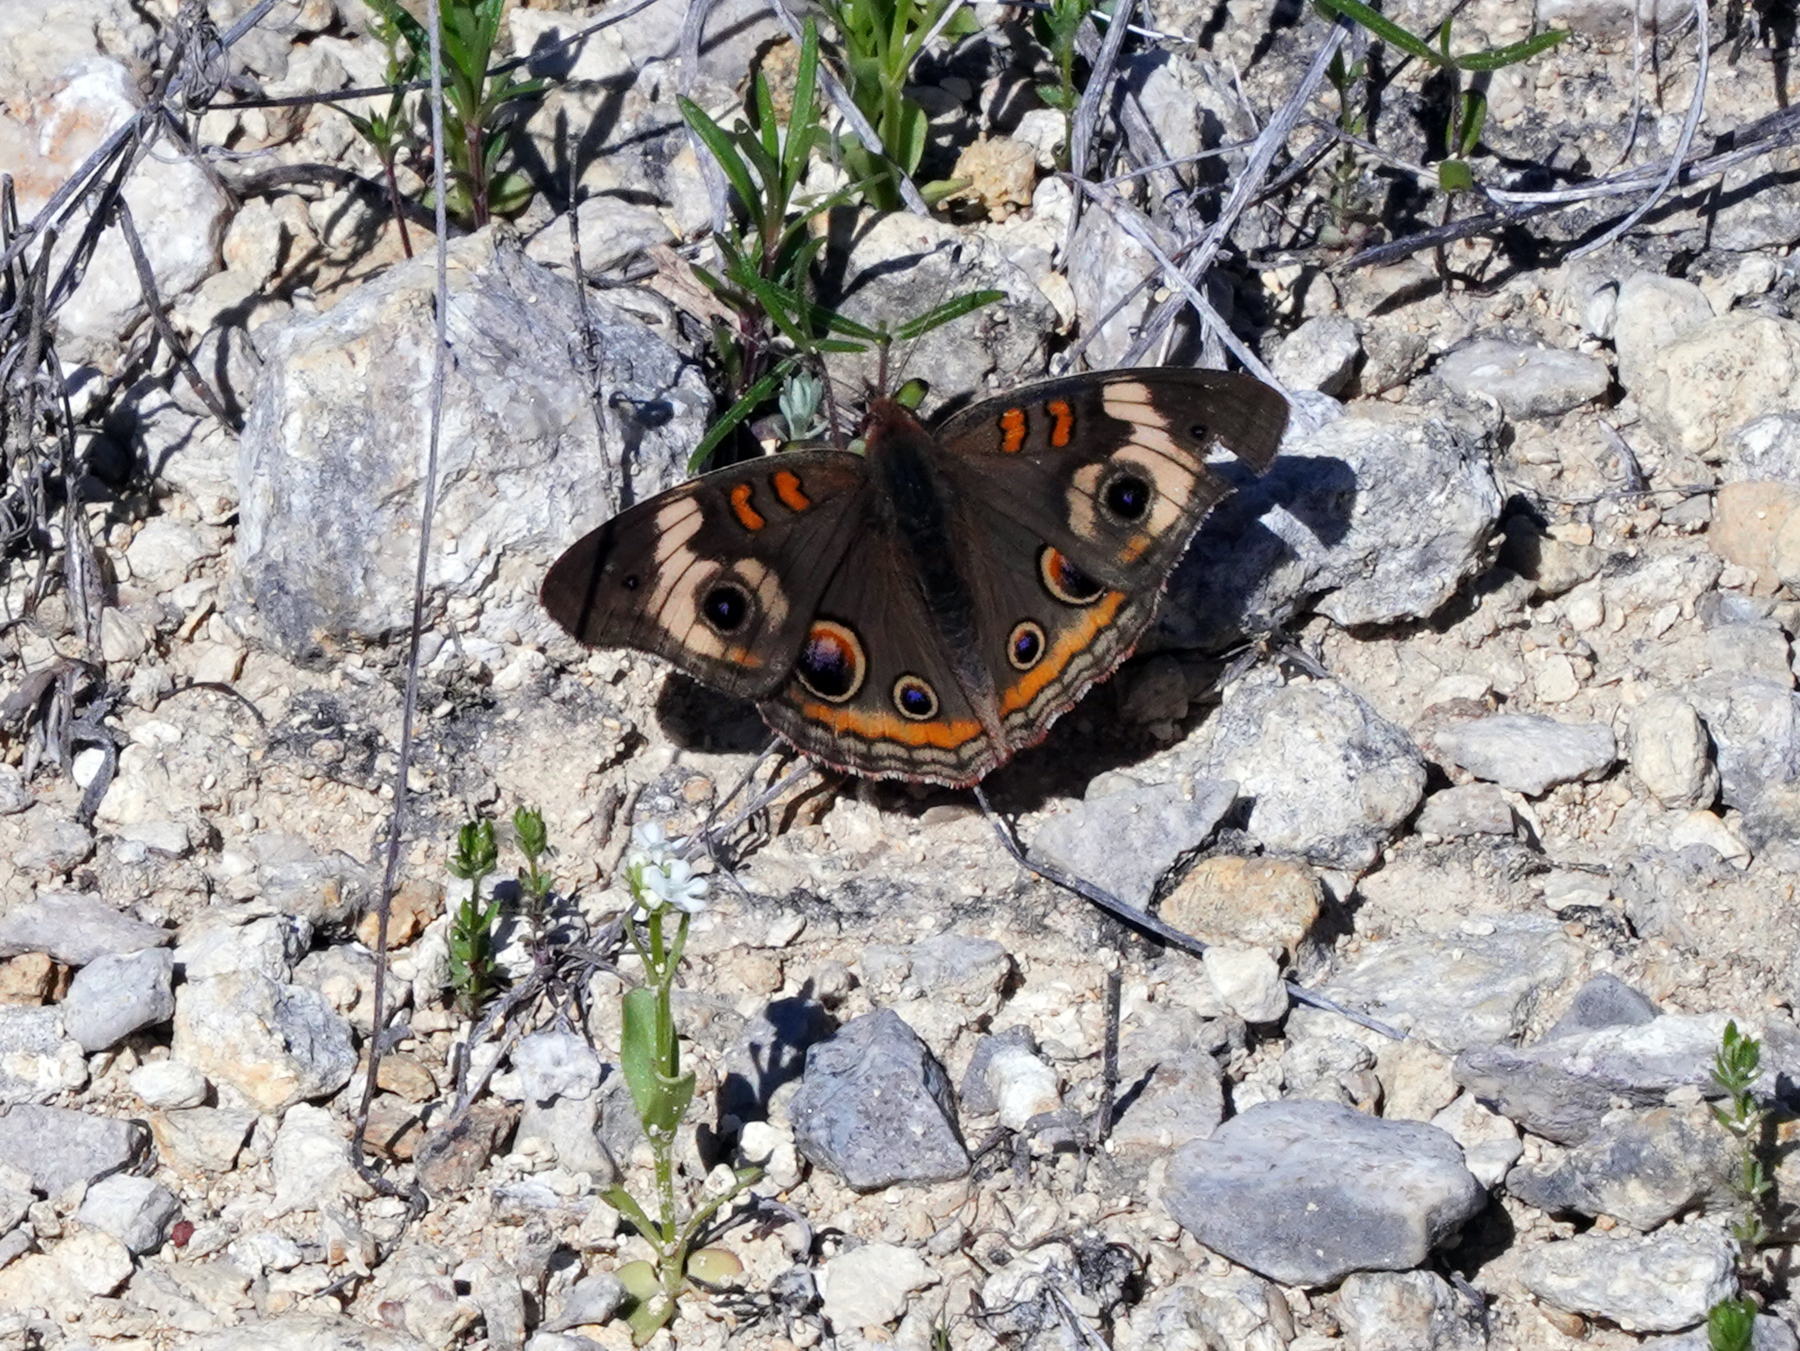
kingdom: Animalia
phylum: Arthropoda
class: Insecta
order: Lepidoptera
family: Nymphalidae
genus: Junonia
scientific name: Junonia coenia
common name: Common buckeye
